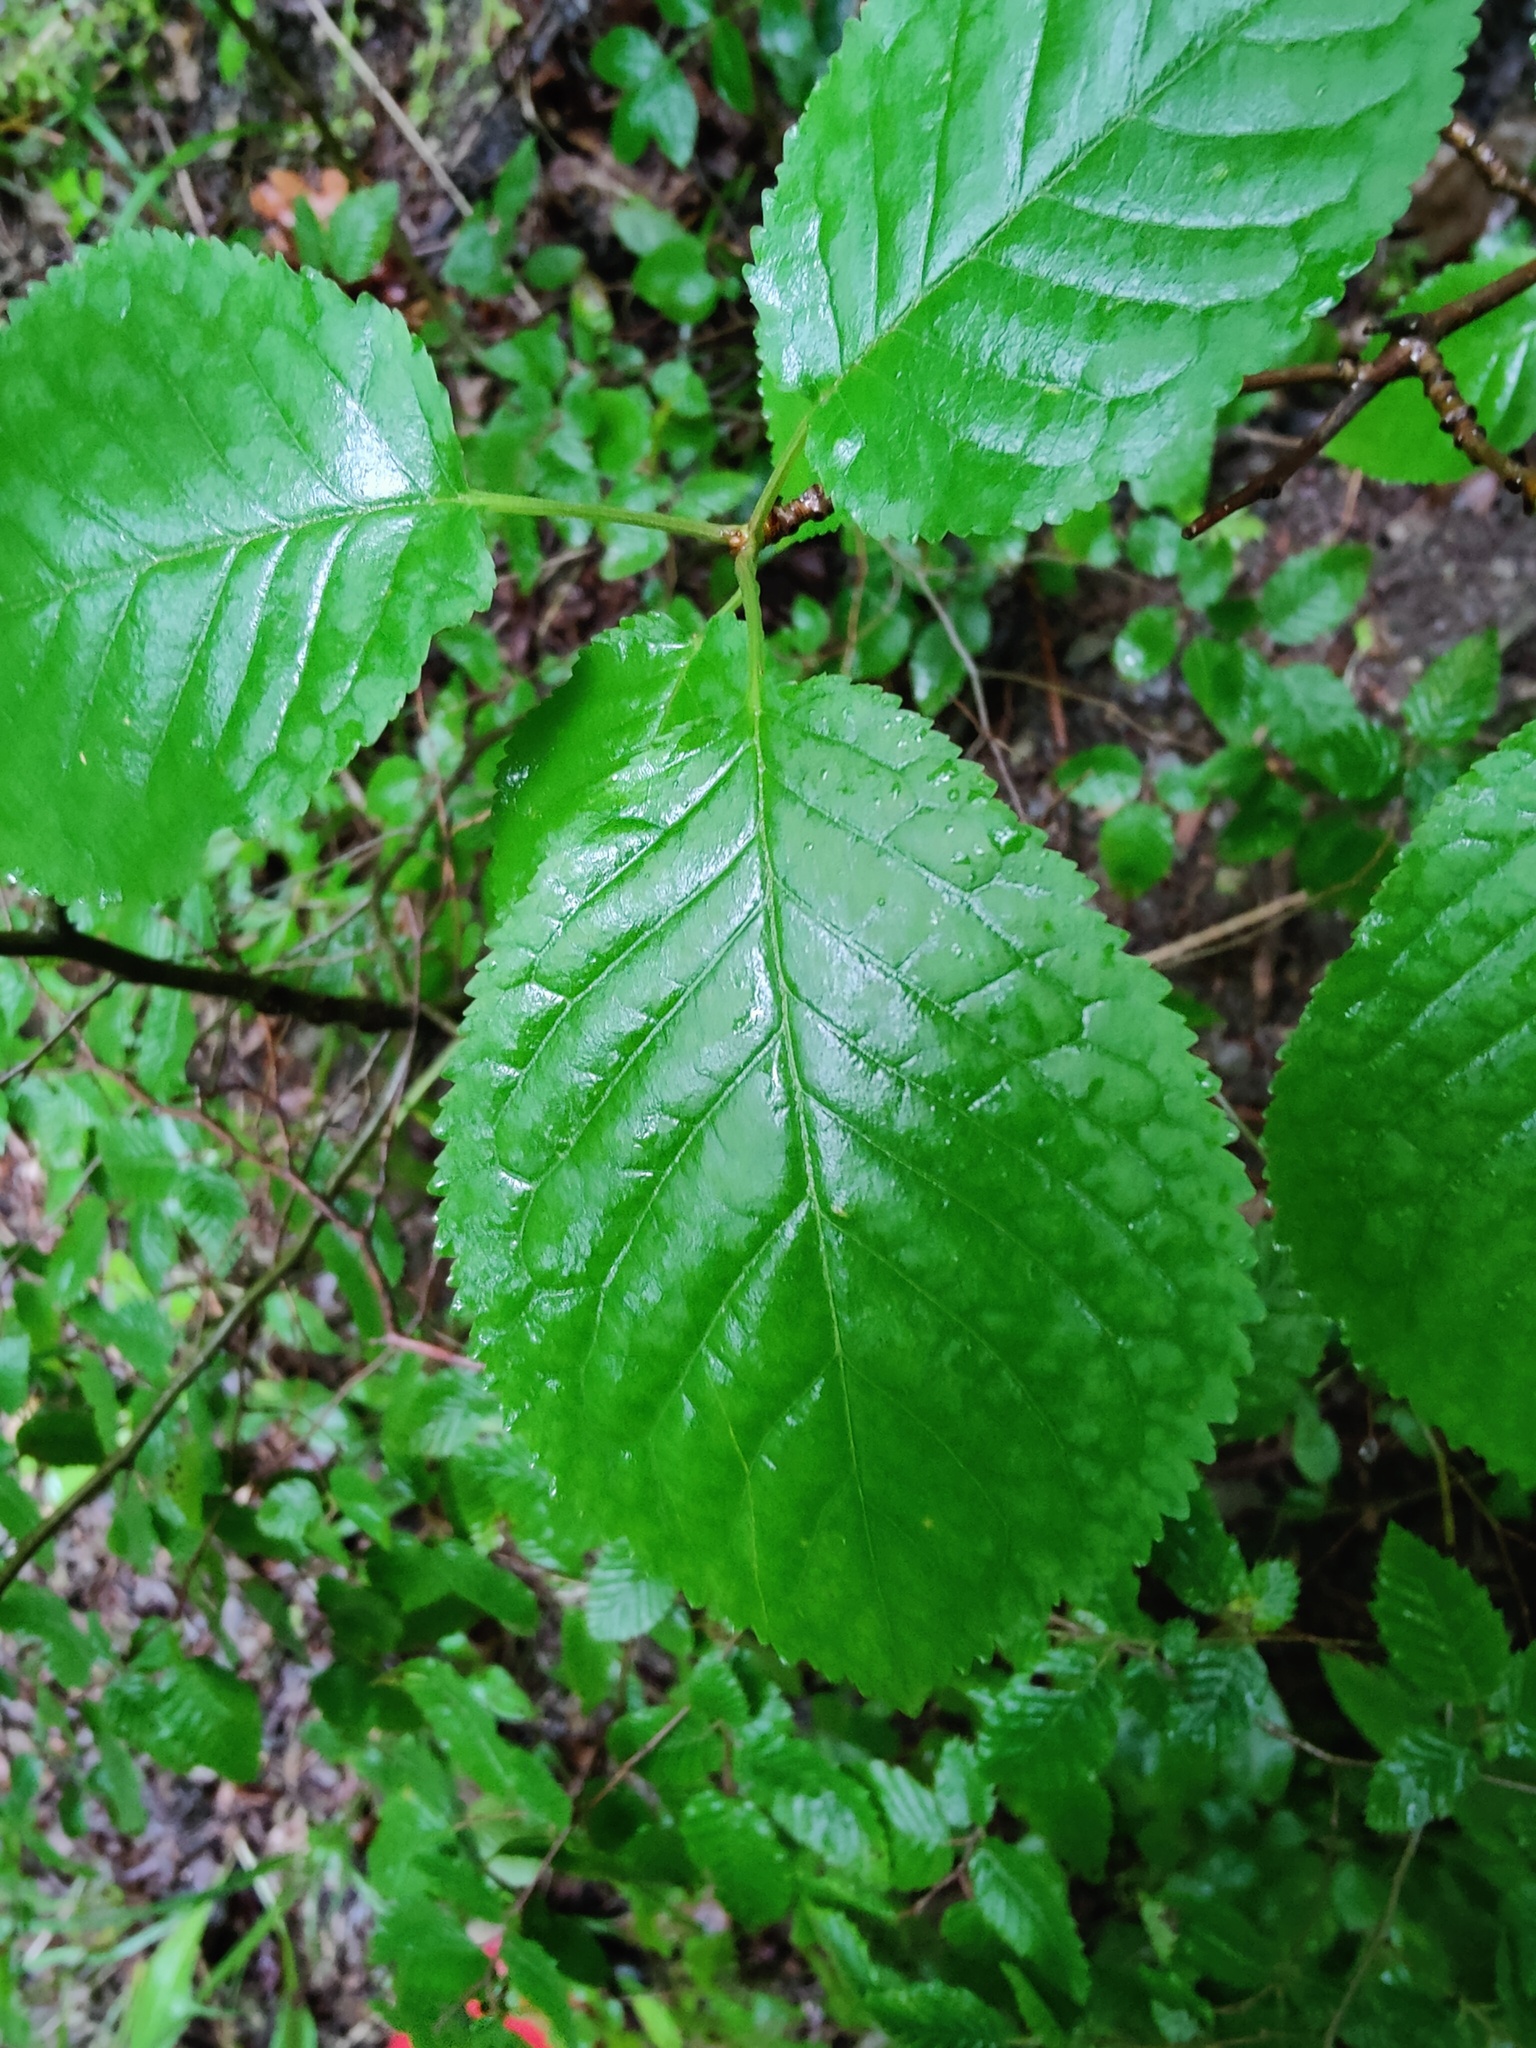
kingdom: Plantae
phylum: Tracheophyta
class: Magnoliopsida
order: Rosales
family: Rosaceae
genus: Prunus
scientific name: Prunus avium
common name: Sweet cherry
